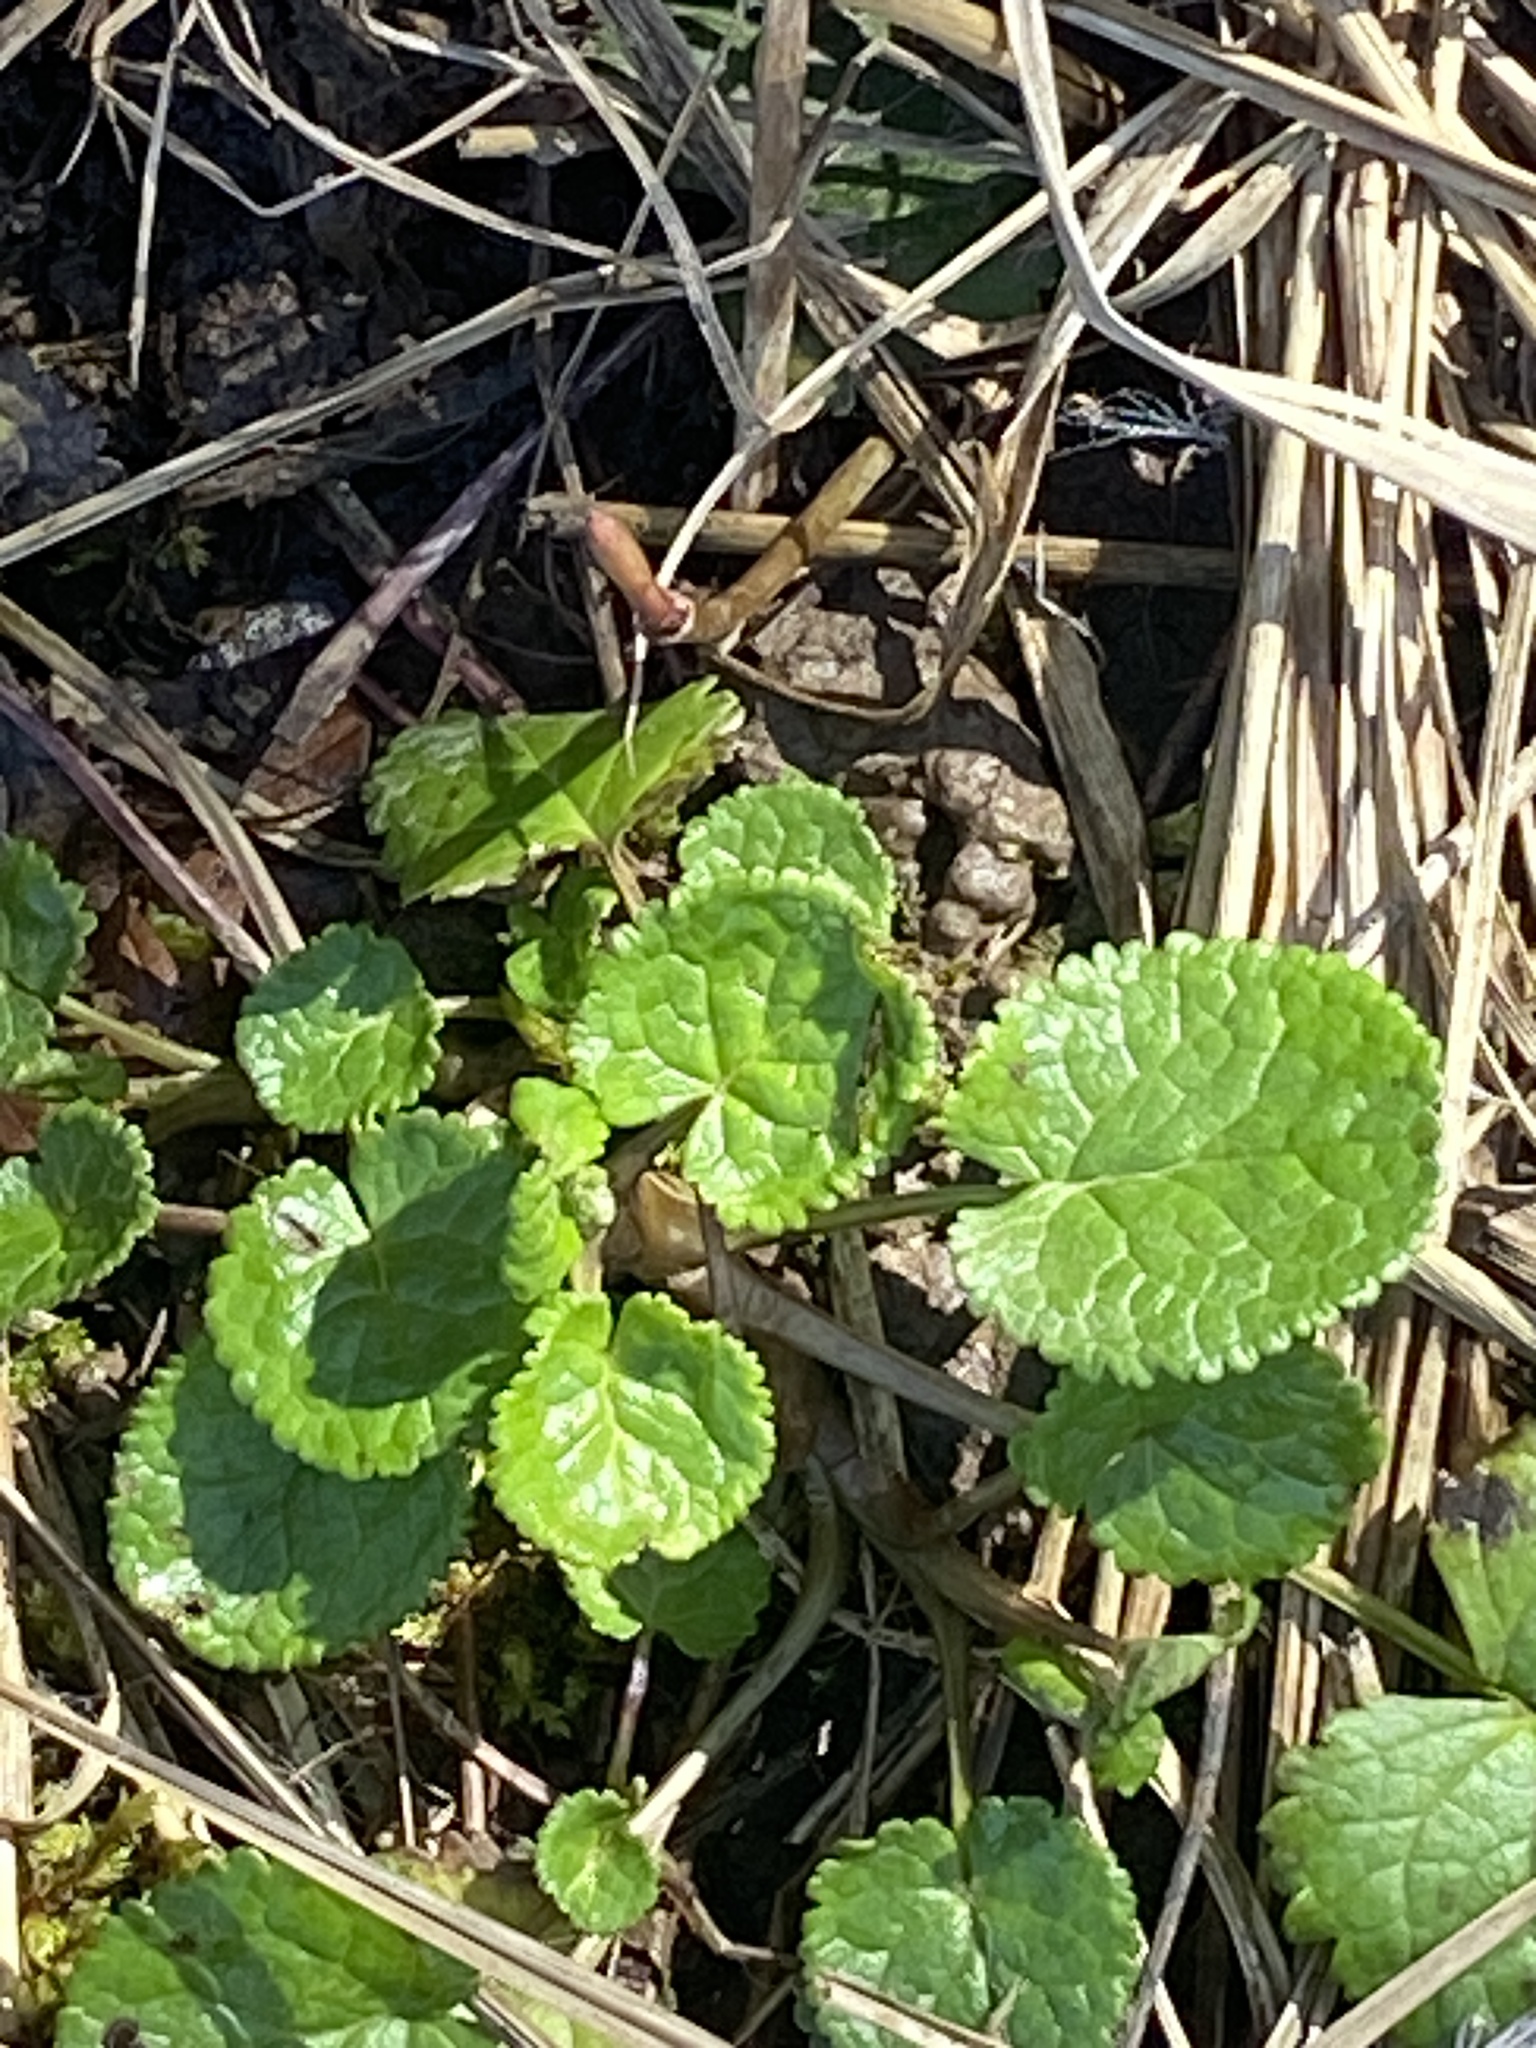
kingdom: Plantae
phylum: Tracheophyta
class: Magnoliopsida
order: Asterales
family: Asteraceae
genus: Packera
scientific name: Packera aurea
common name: Golden groundsel
